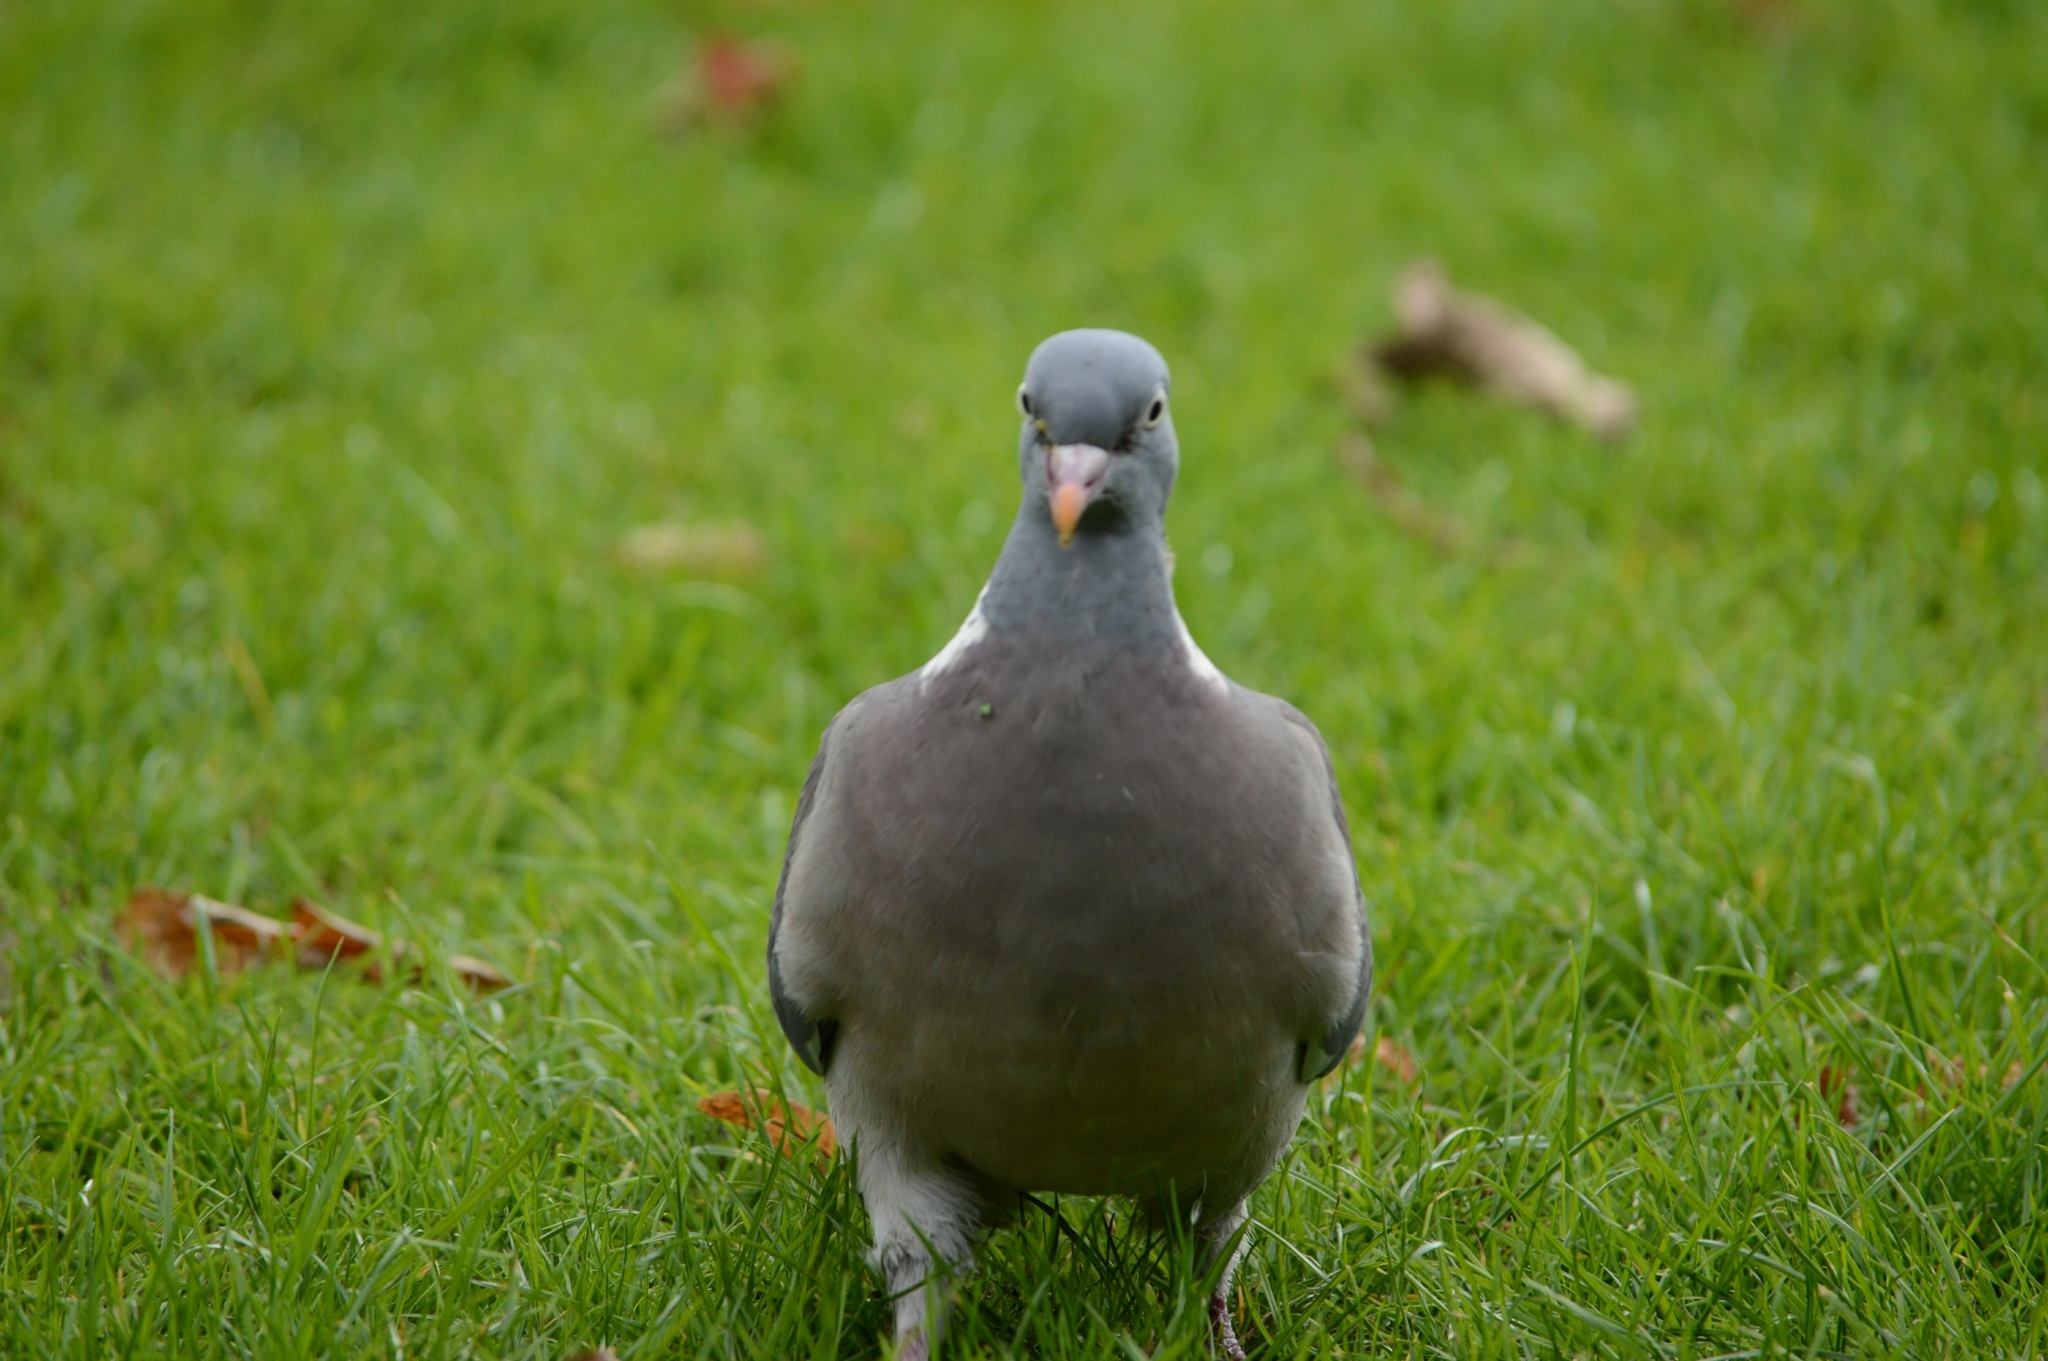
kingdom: Animalia
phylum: Chordata
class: Aves
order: Columbiformes
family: Columbidae
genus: Columba
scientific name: Columba palumbus
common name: Common wood pigeon
